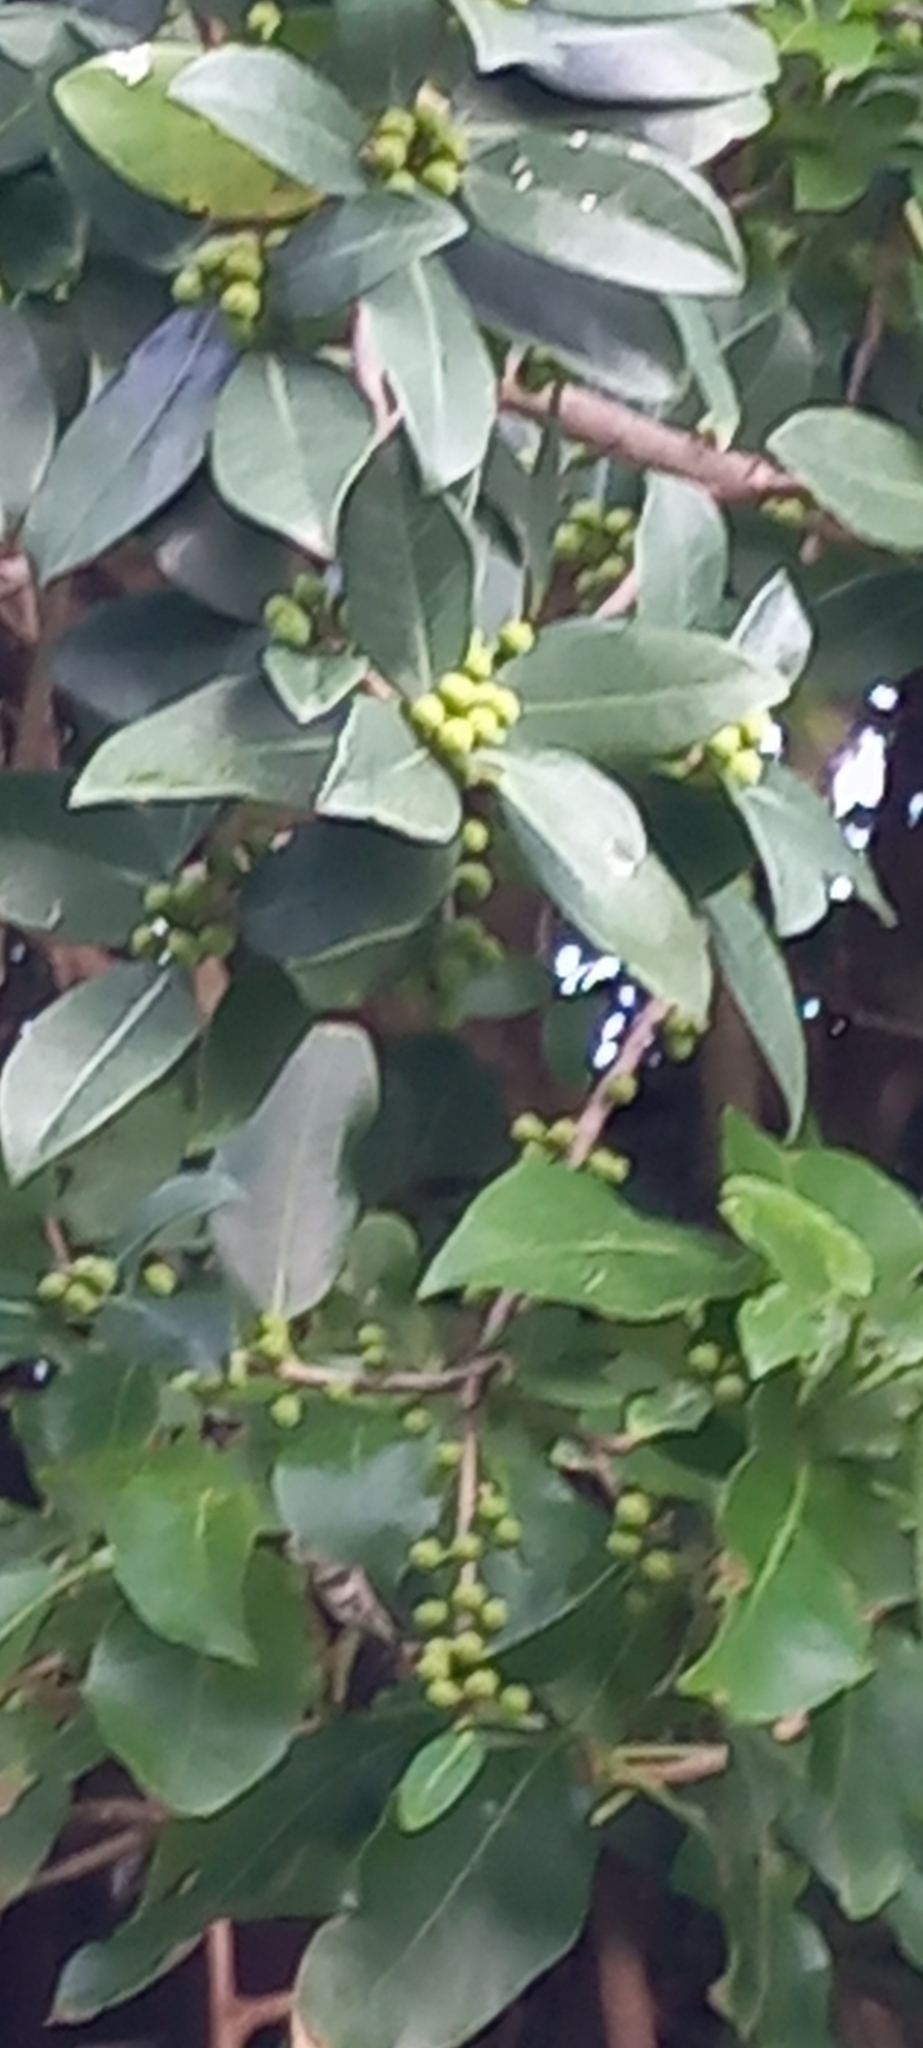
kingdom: Plantae
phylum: Tracheophyta
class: Magnoliopsida
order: Rosales
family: Moraceae
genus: Ficus
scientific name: Ficus burtt-davyi
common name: Scrambling fig
